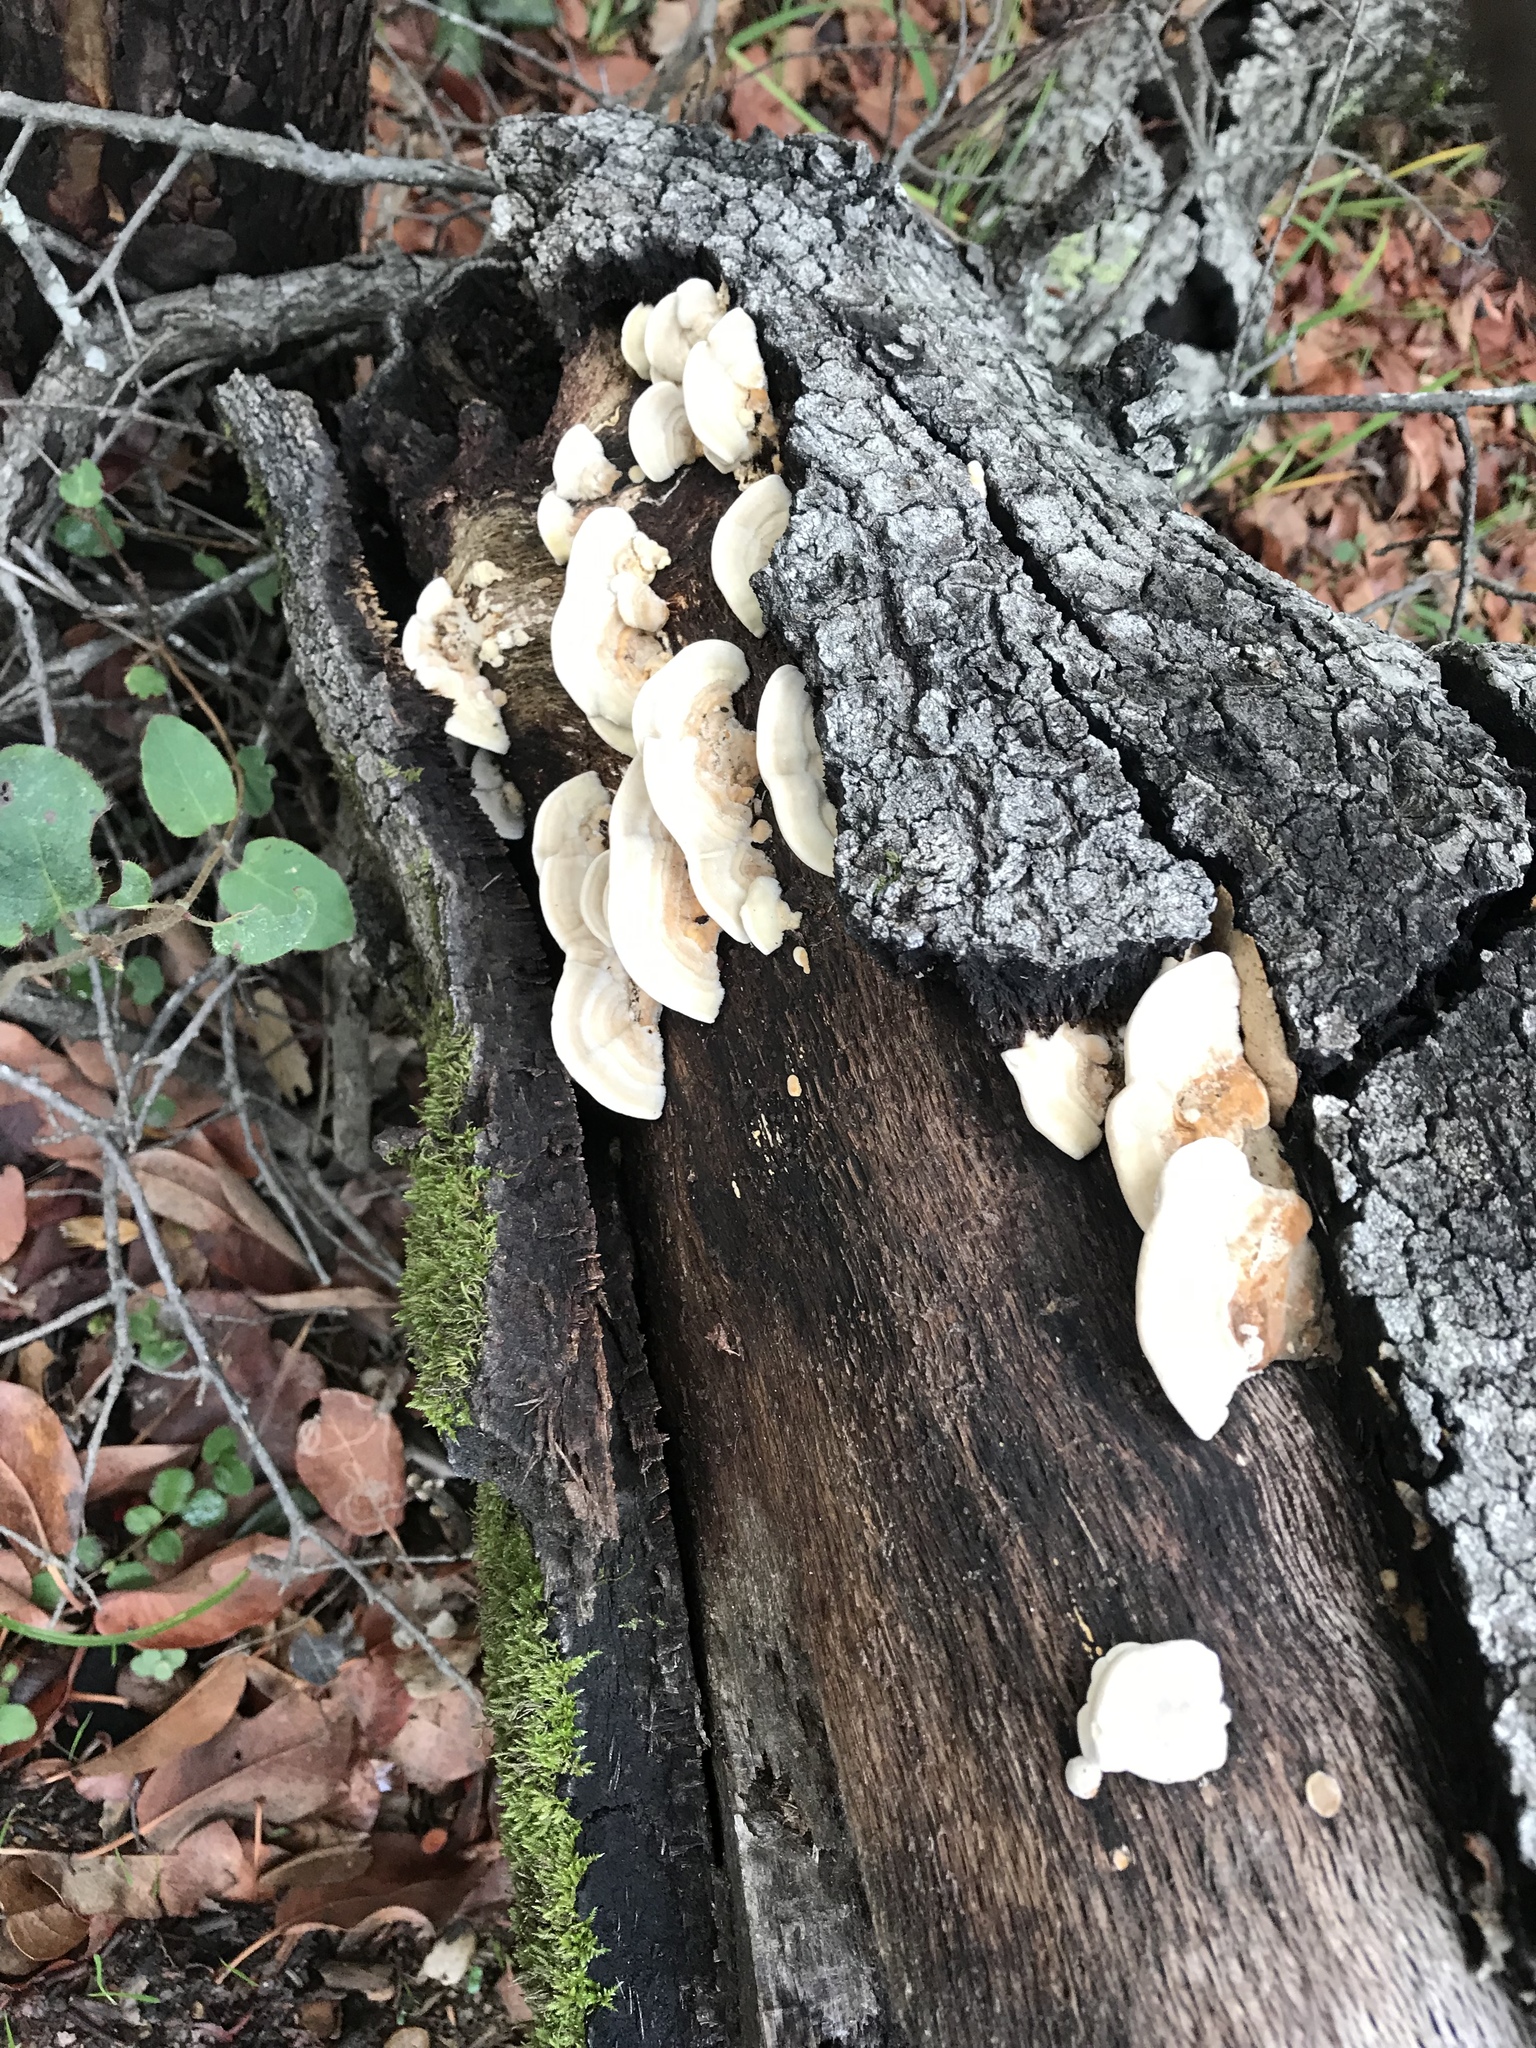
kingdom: Fungi
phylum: Basidiomycota
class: Agaricomycetes
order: Polyporales
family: Polyporaceae
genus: Lenzites
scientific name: Lenzites betulinus
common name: Birch mazegill
